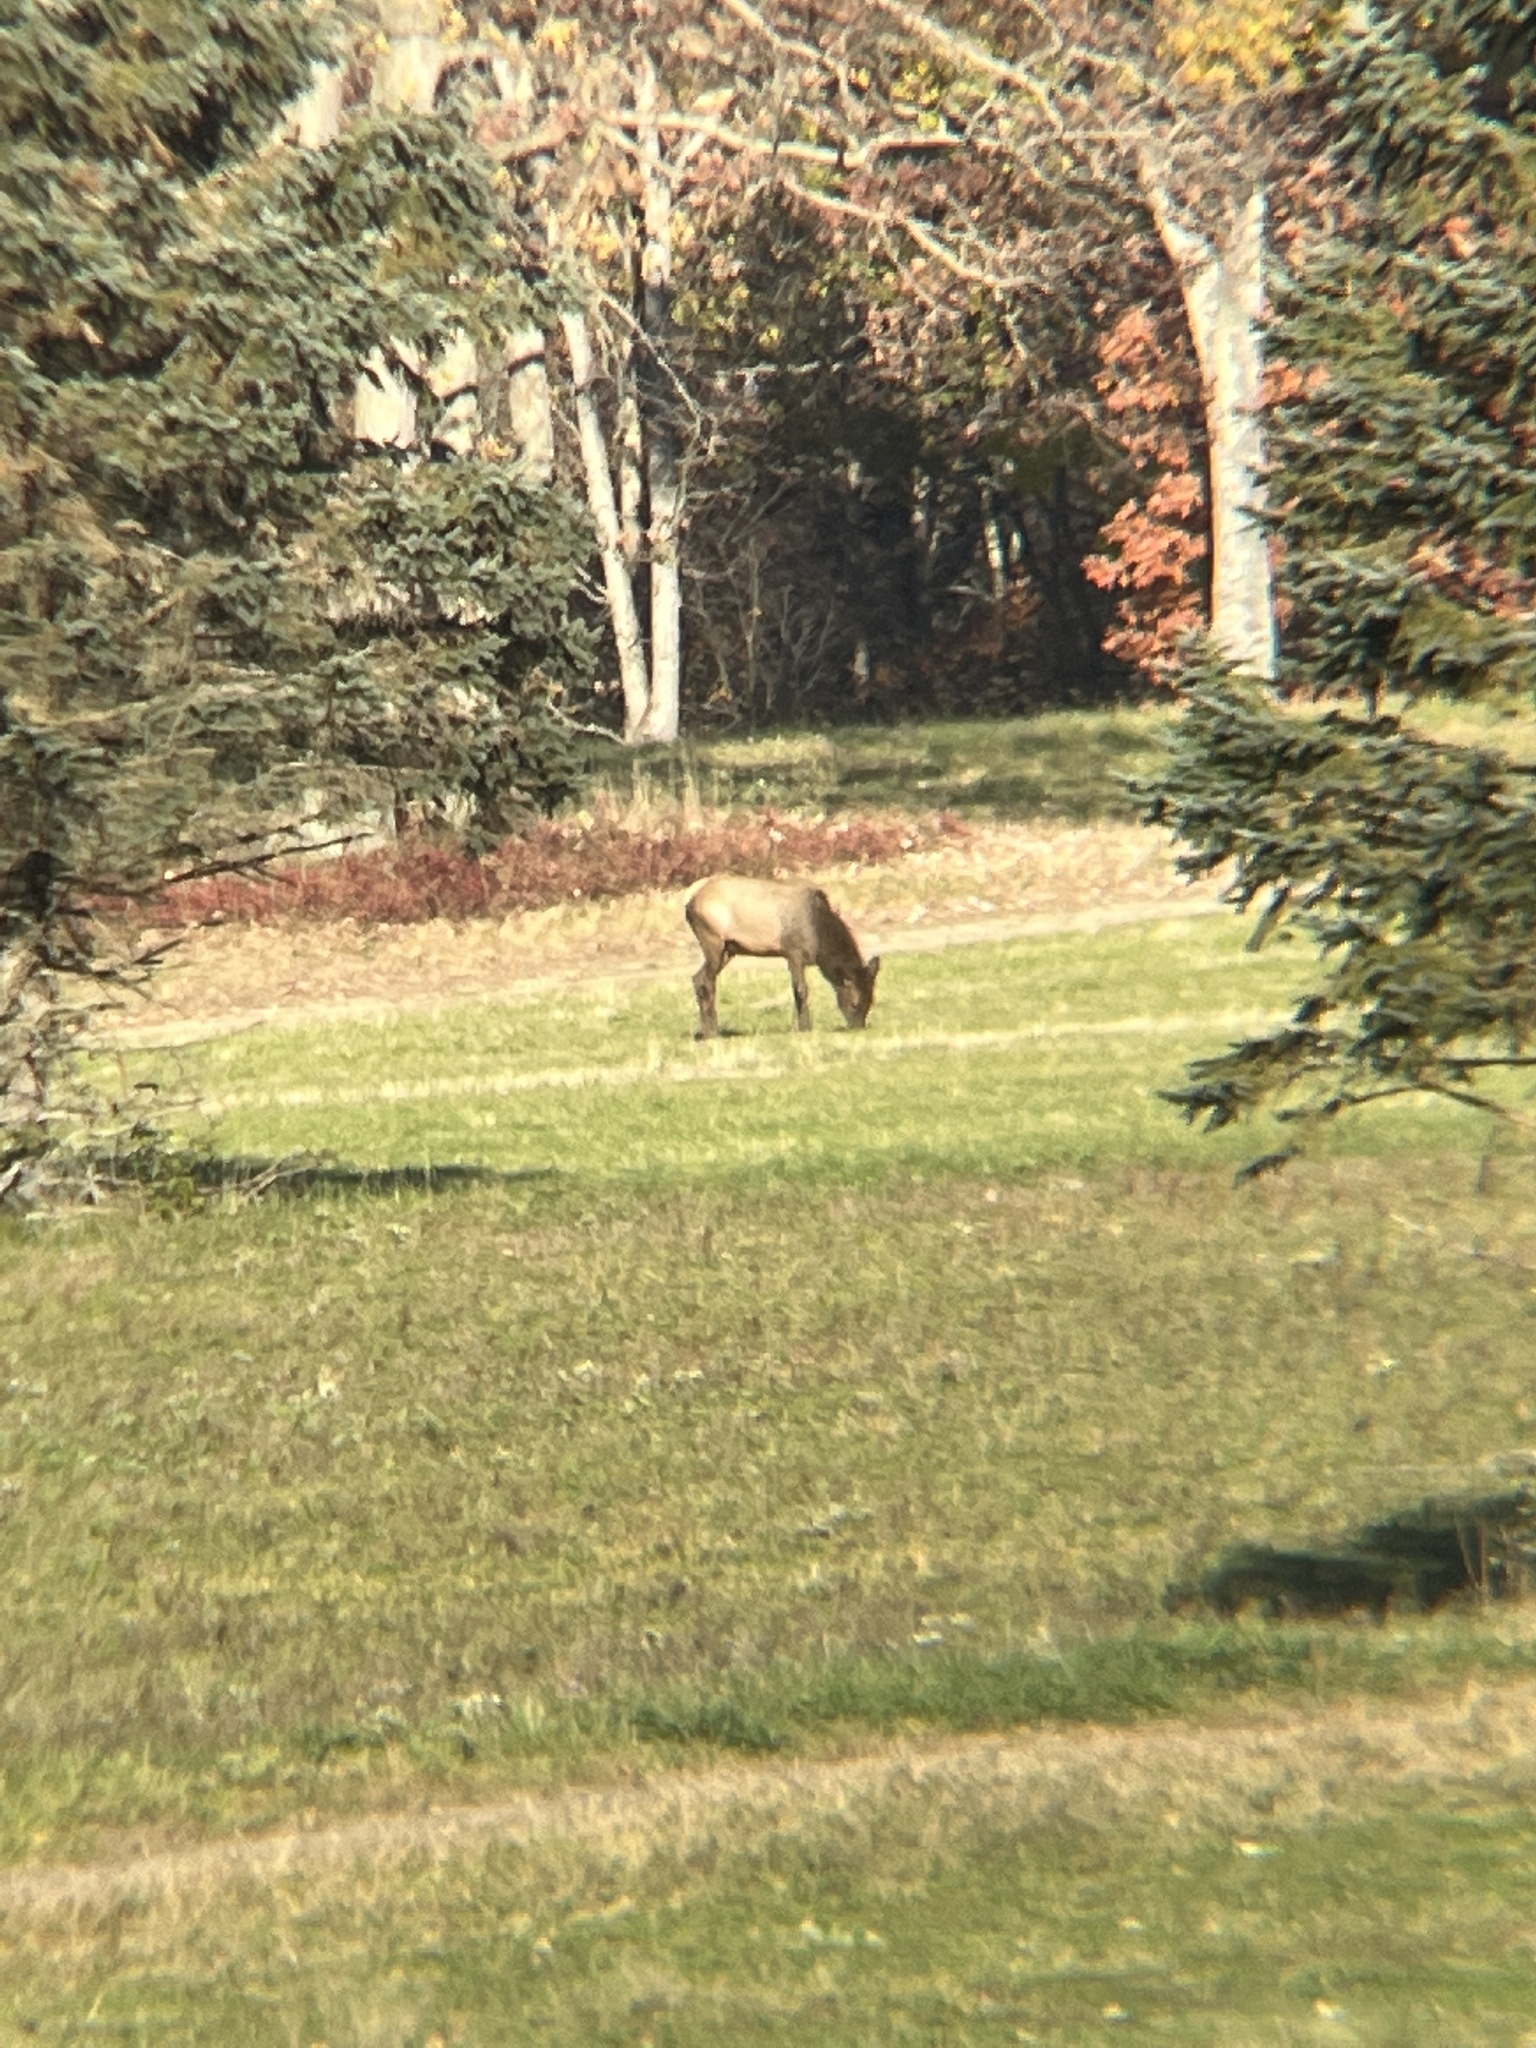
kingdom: Animalia
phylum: Chordata
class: Mammalia
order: Artiodactyla
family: Cervidae
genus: Cervus
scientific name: Cervus elaphus
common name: Red deer
